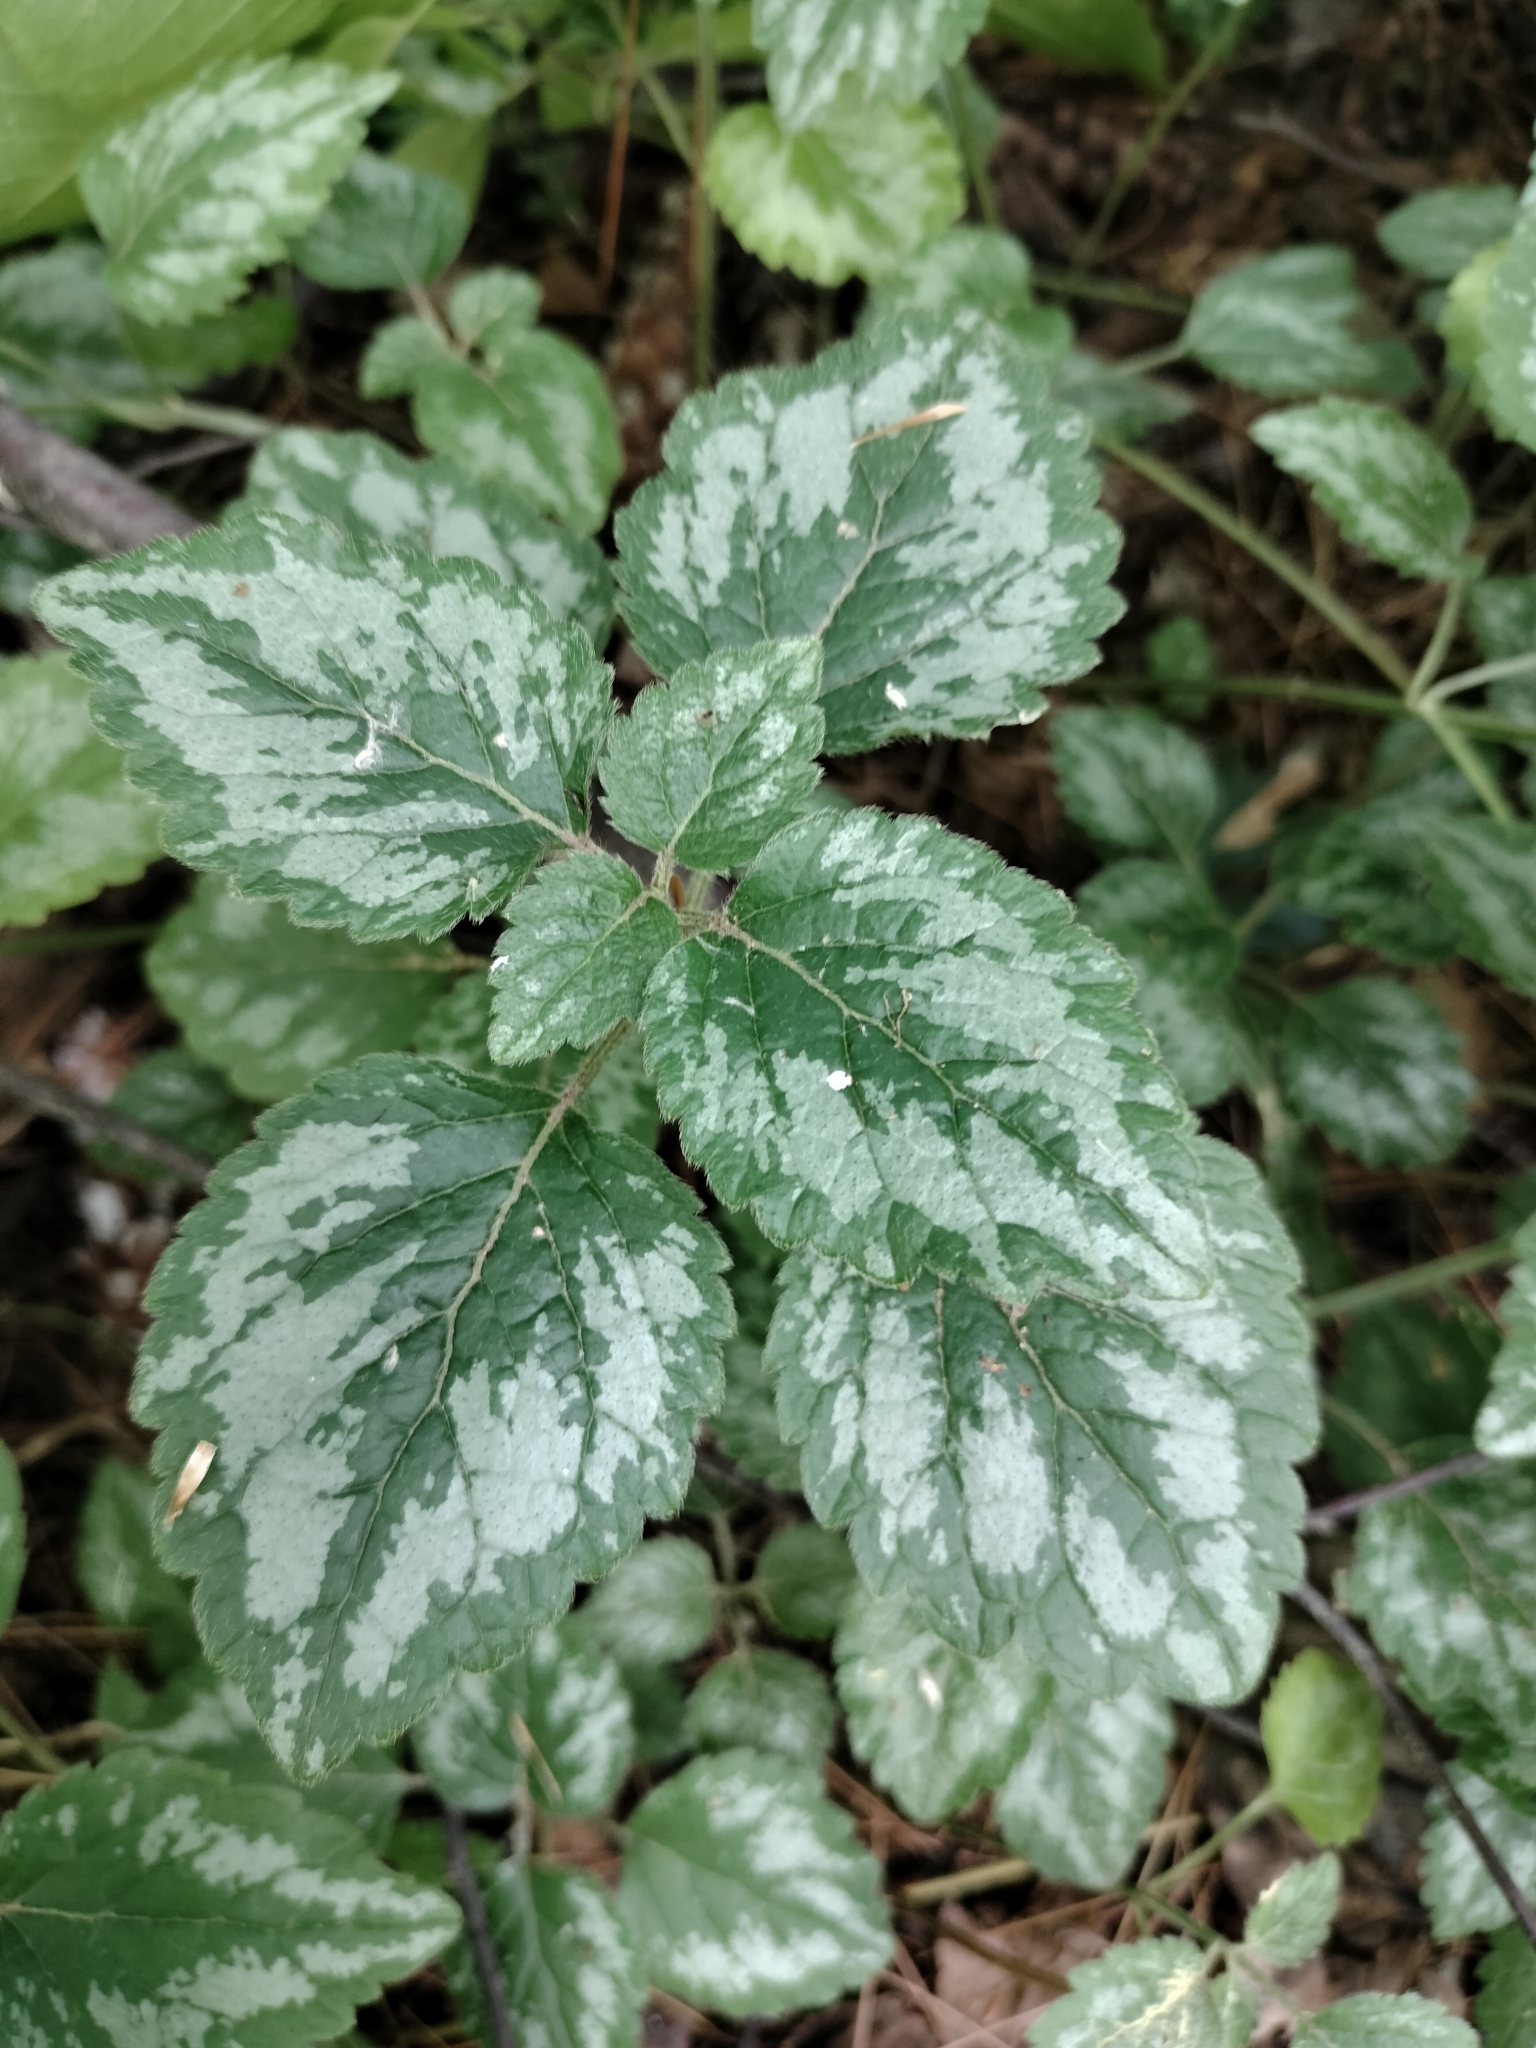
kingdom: Plantae
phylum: Tracheophyta
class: Magnoliopsida
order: Lamiales
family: Lamiaceae
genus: Lamium
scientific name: Lamium galeobdolon
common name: Yellow archangel
